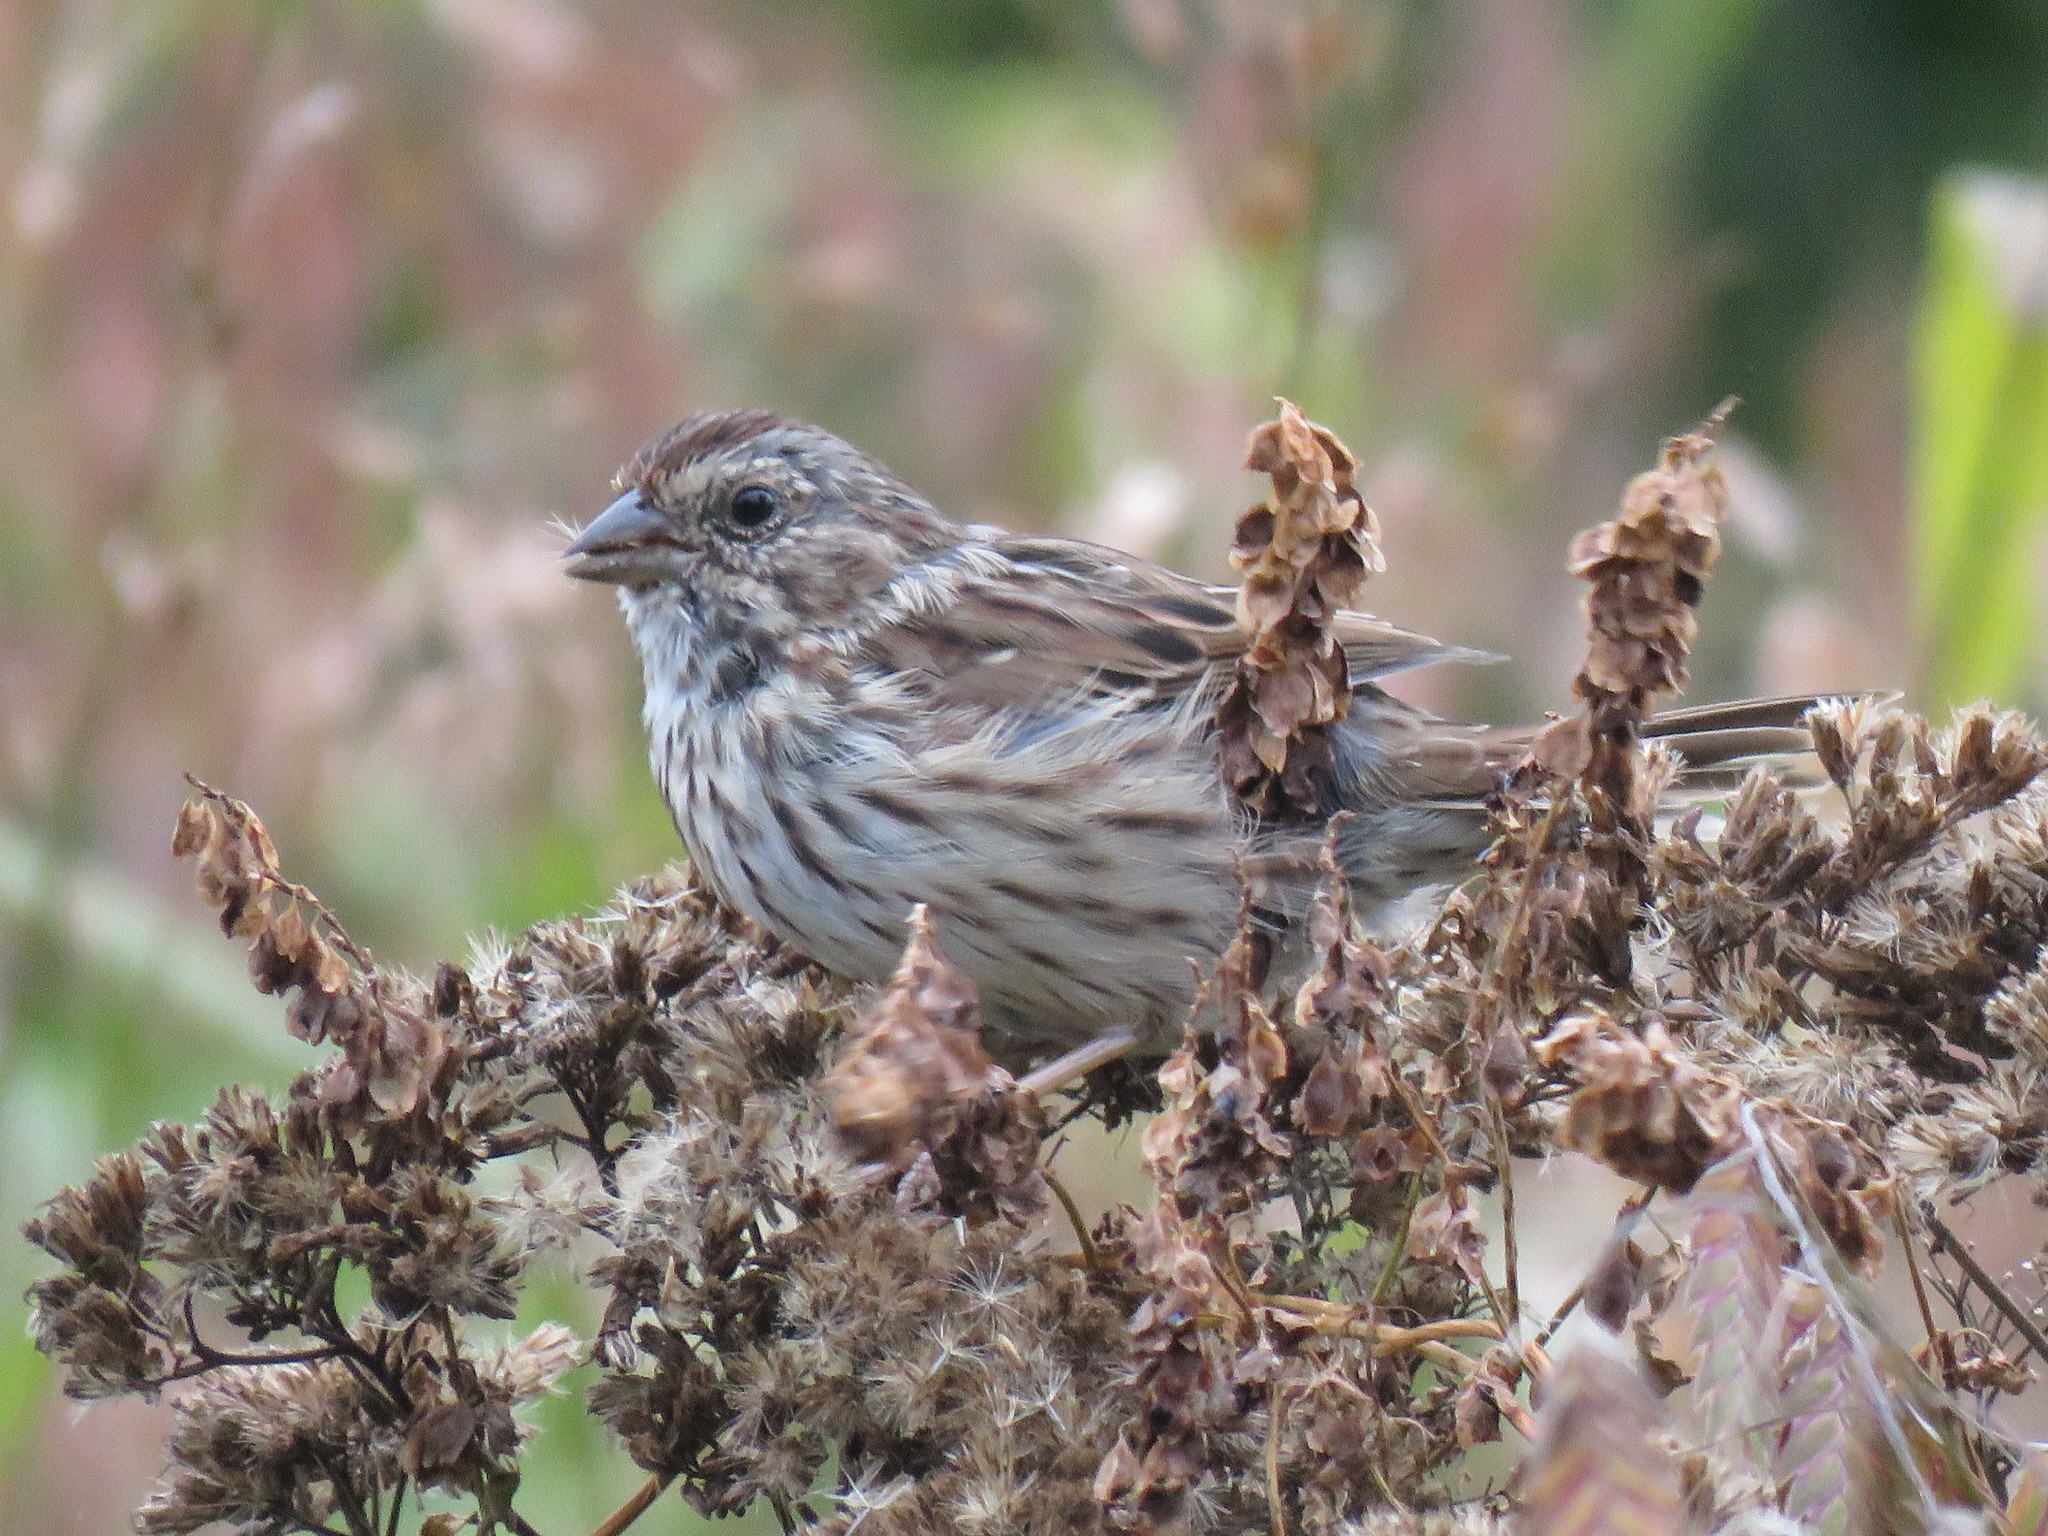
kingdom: Animalia
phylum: Chordata
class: Aves
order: Passeriformes
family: Passerellidae
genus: Melospiza
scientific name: Melospiza melodia
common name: Song sparrow
